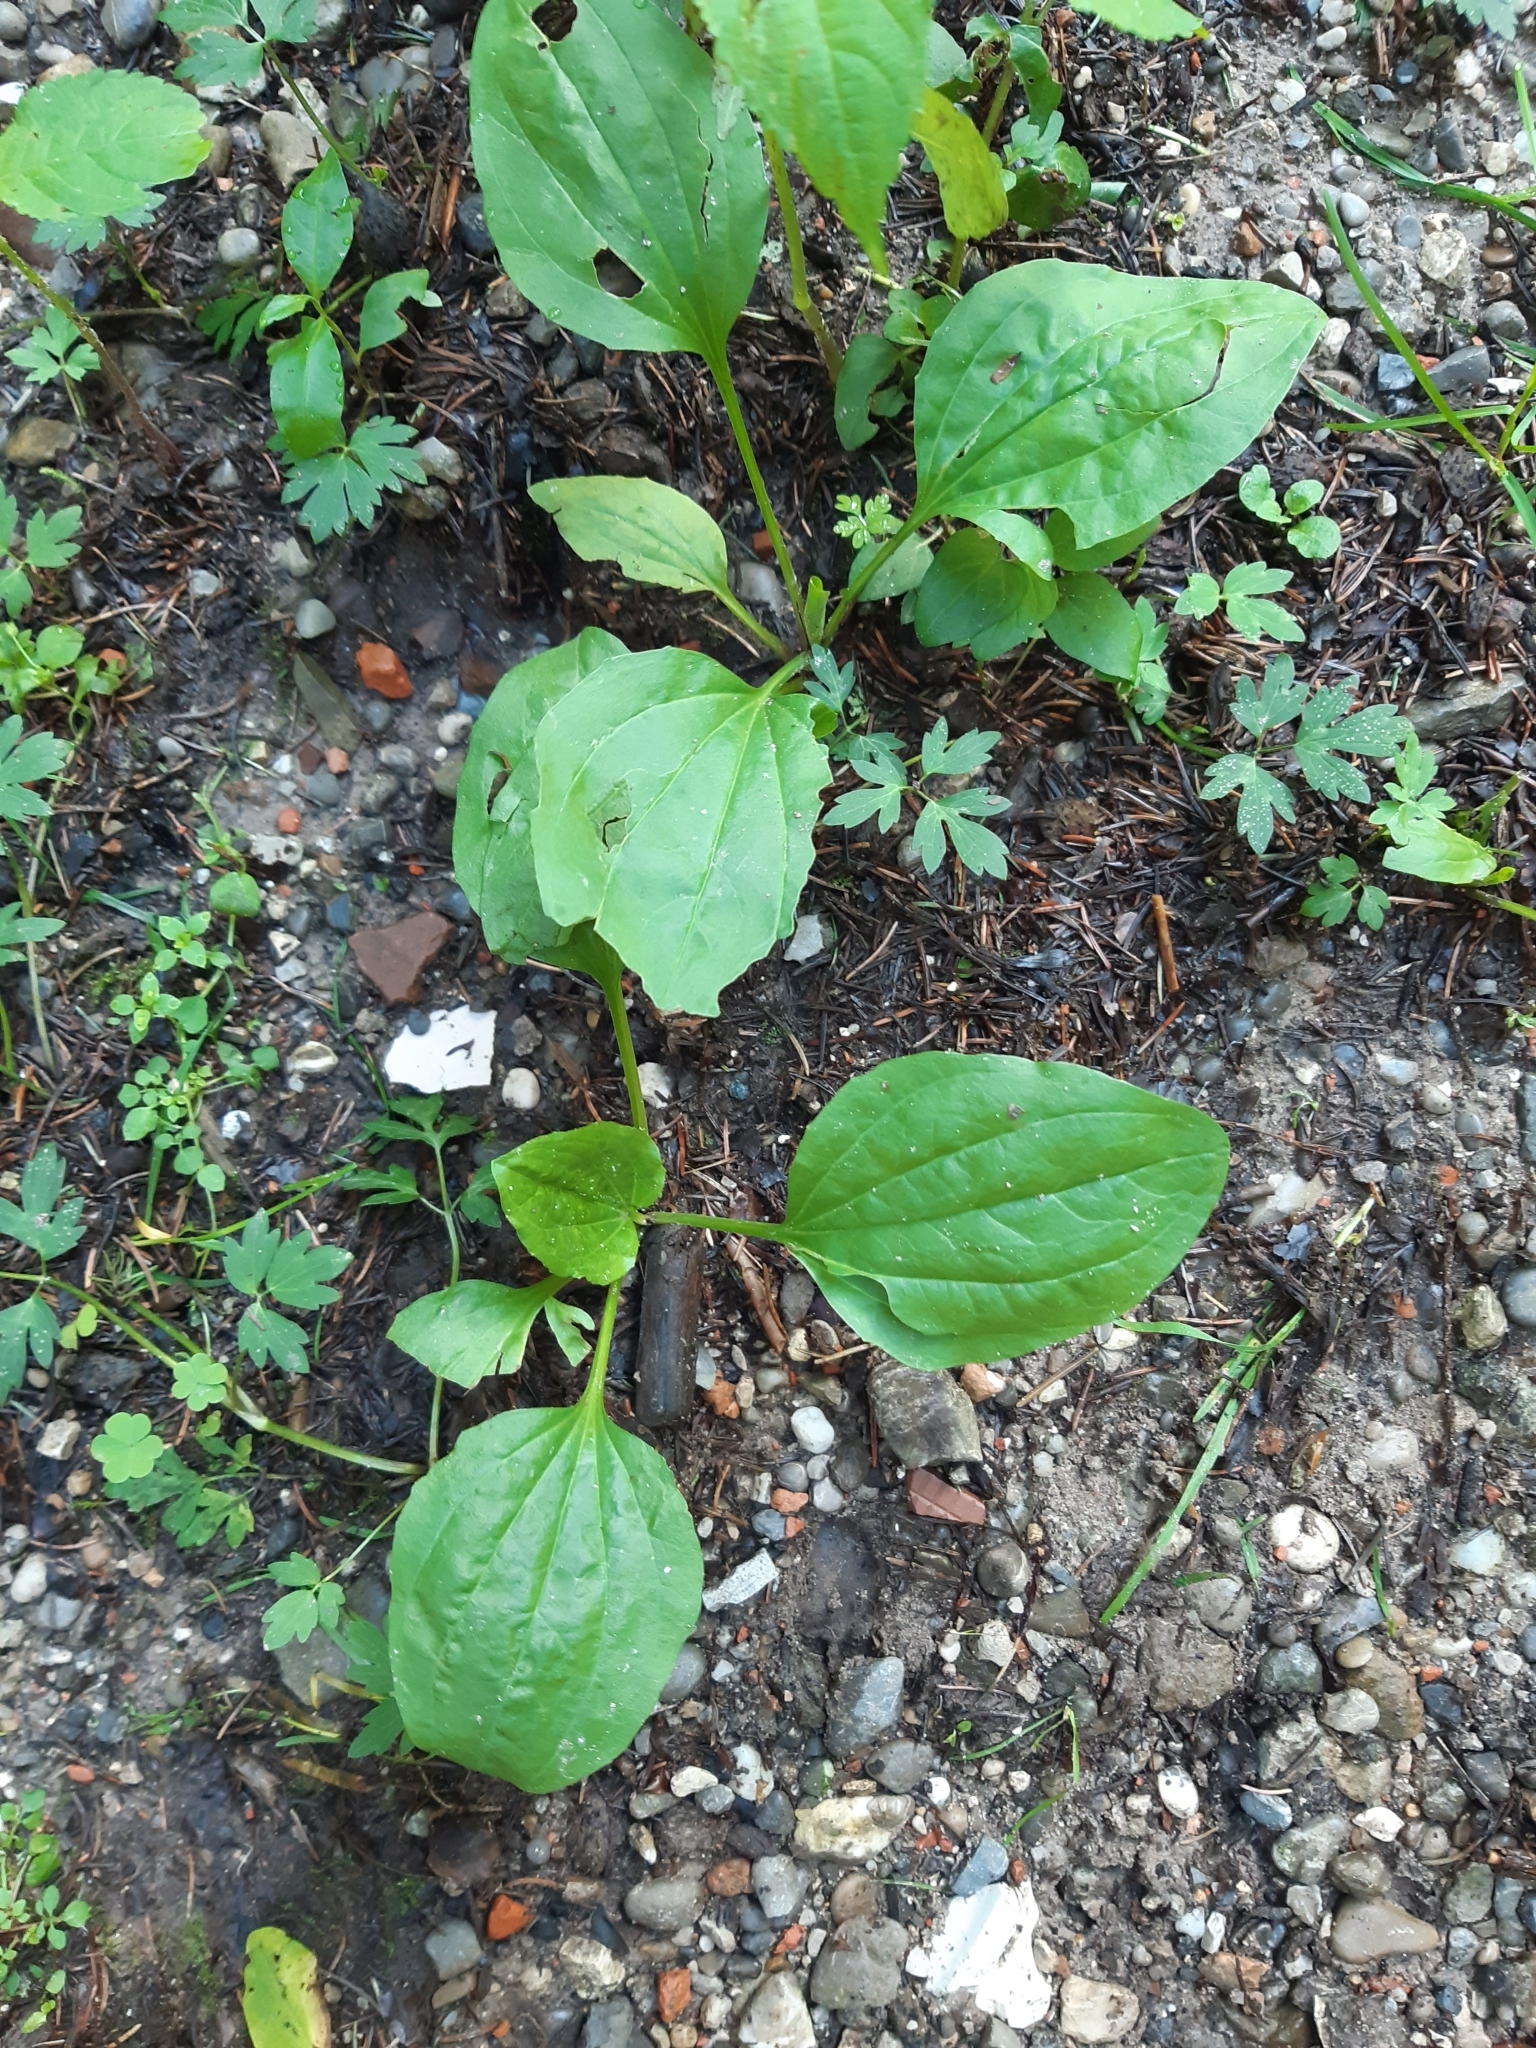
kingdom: Plantae
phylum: Tracheophyta
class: Magnoliopsida
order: Lamiales
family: Plantaginaceae
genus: Plantago
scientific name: Plantago major
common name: Common plantain
